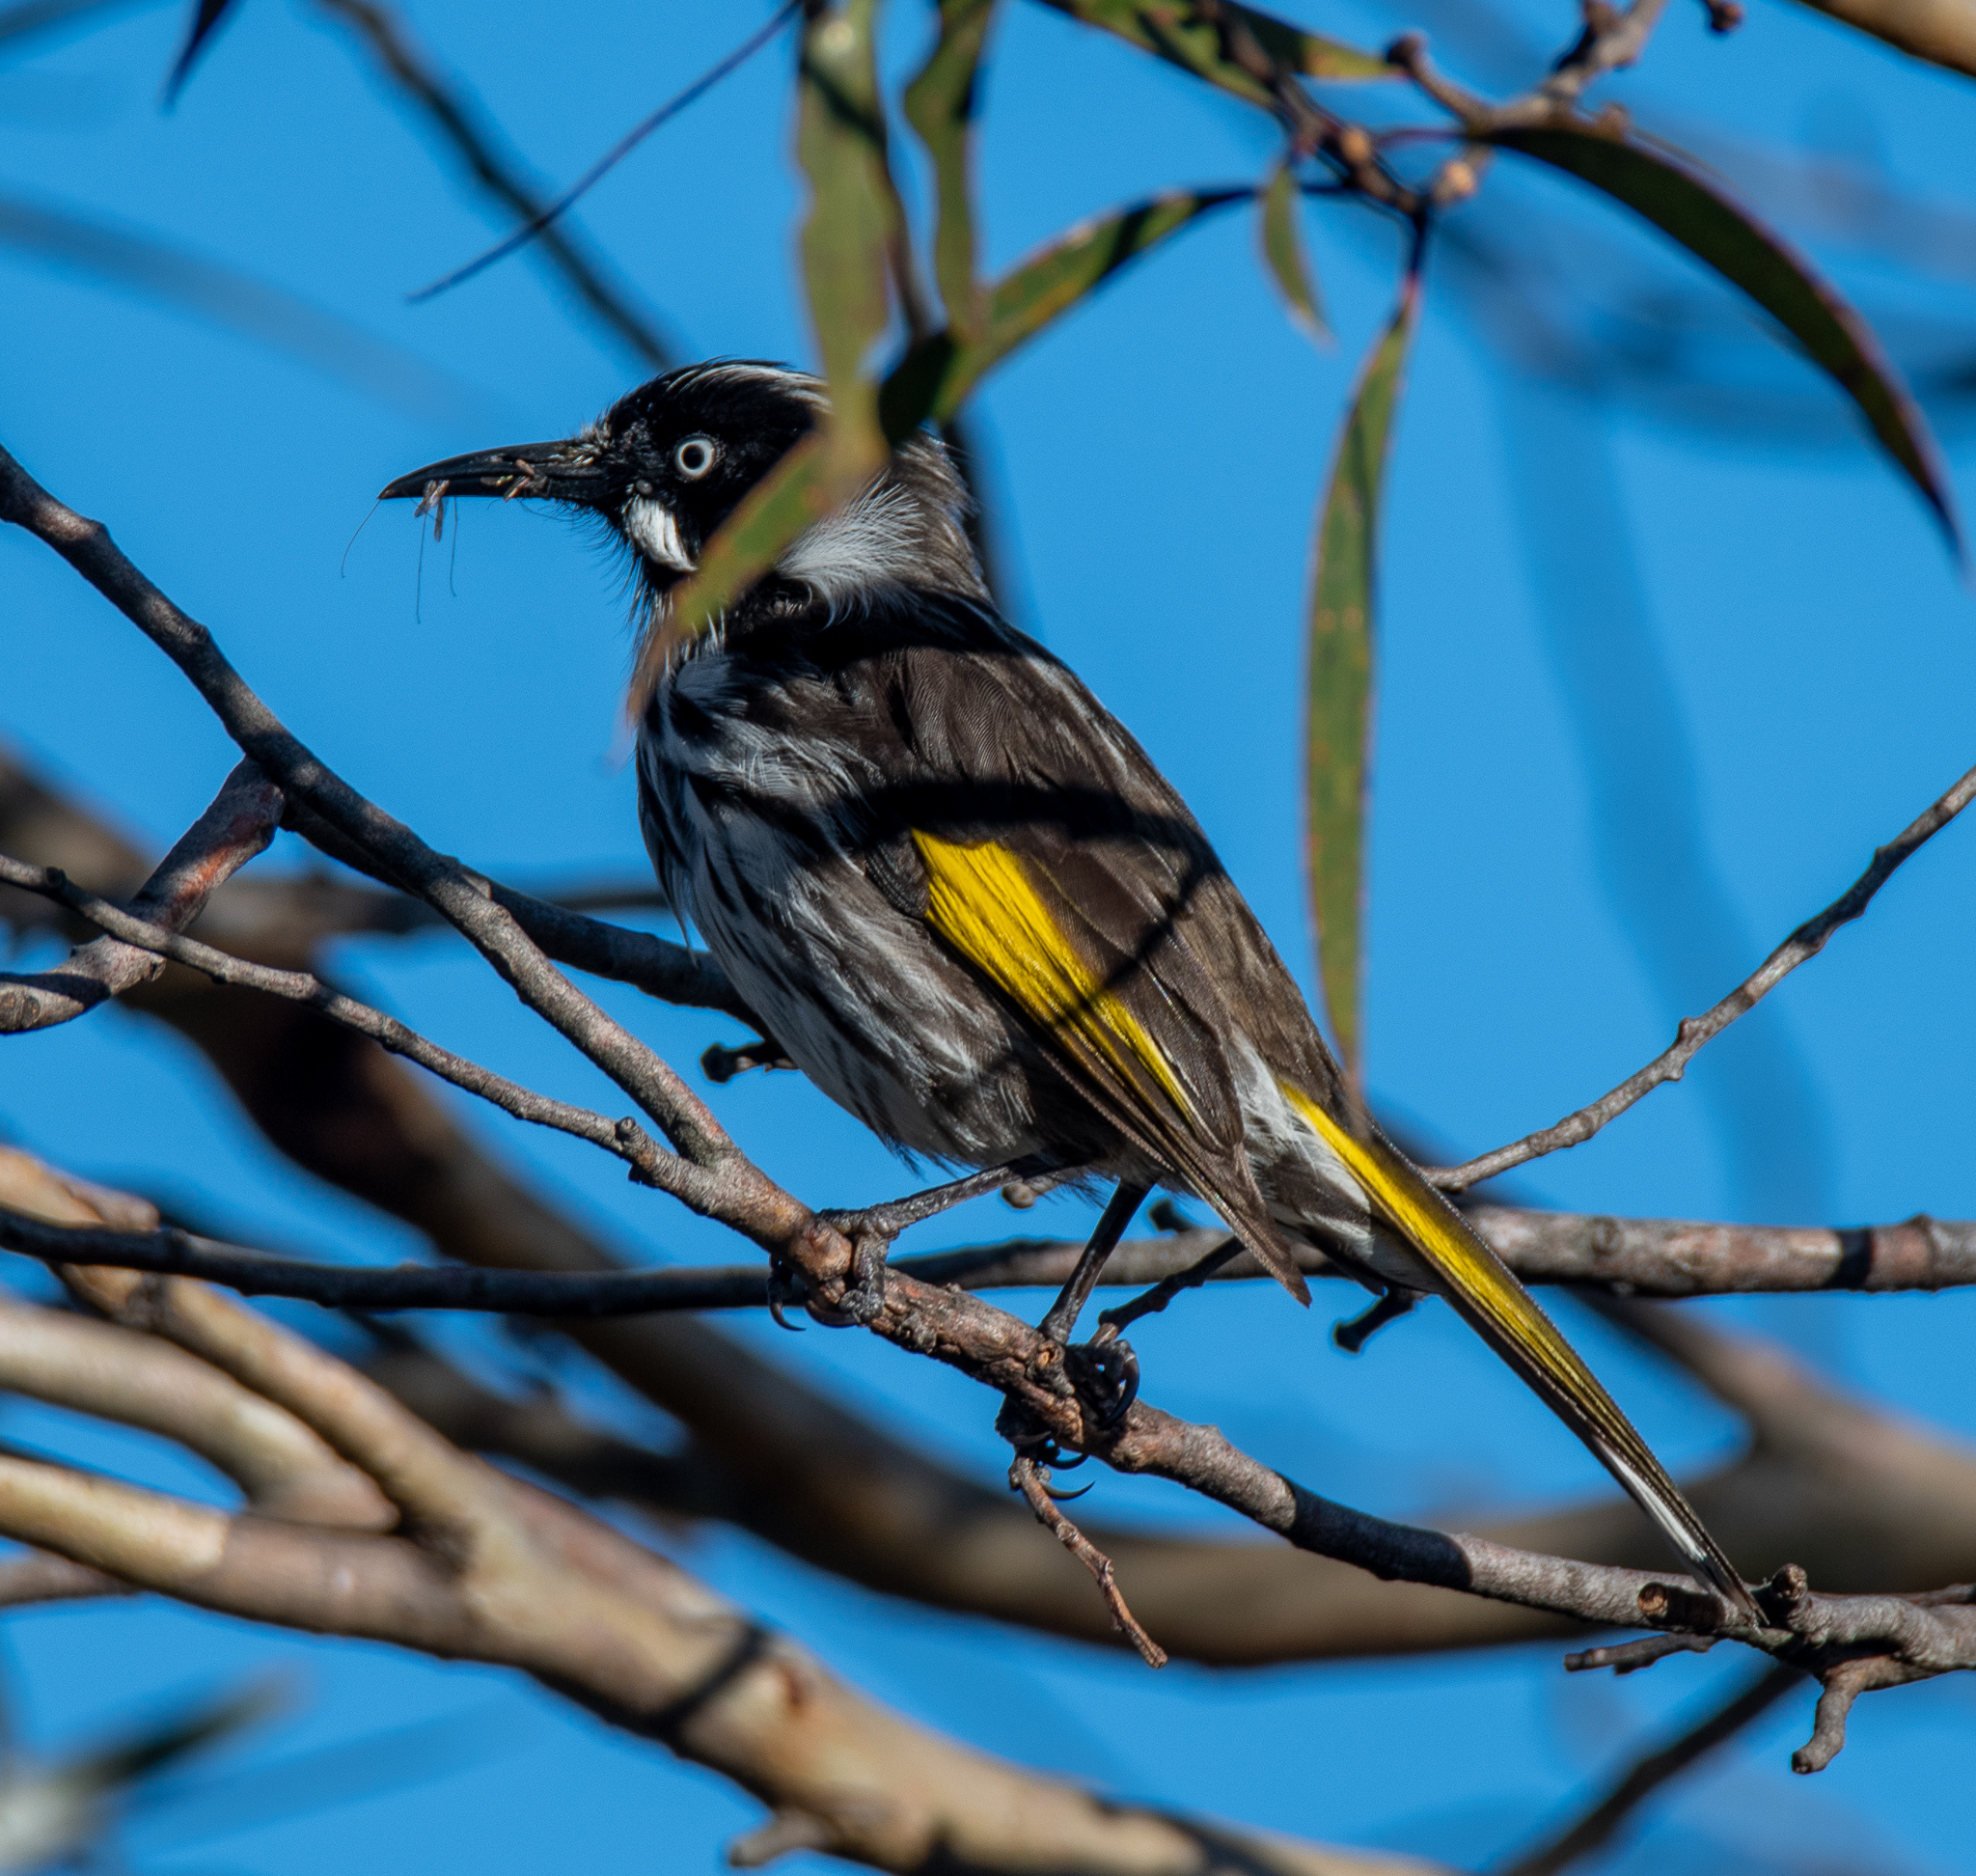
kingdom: Animalia
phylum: Chordata
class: Aves
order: Passeriformes
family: Meliphagidae
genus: Phylidonyris
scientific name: Phylidonyris novaehollandiae
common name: New holland honeyeater
